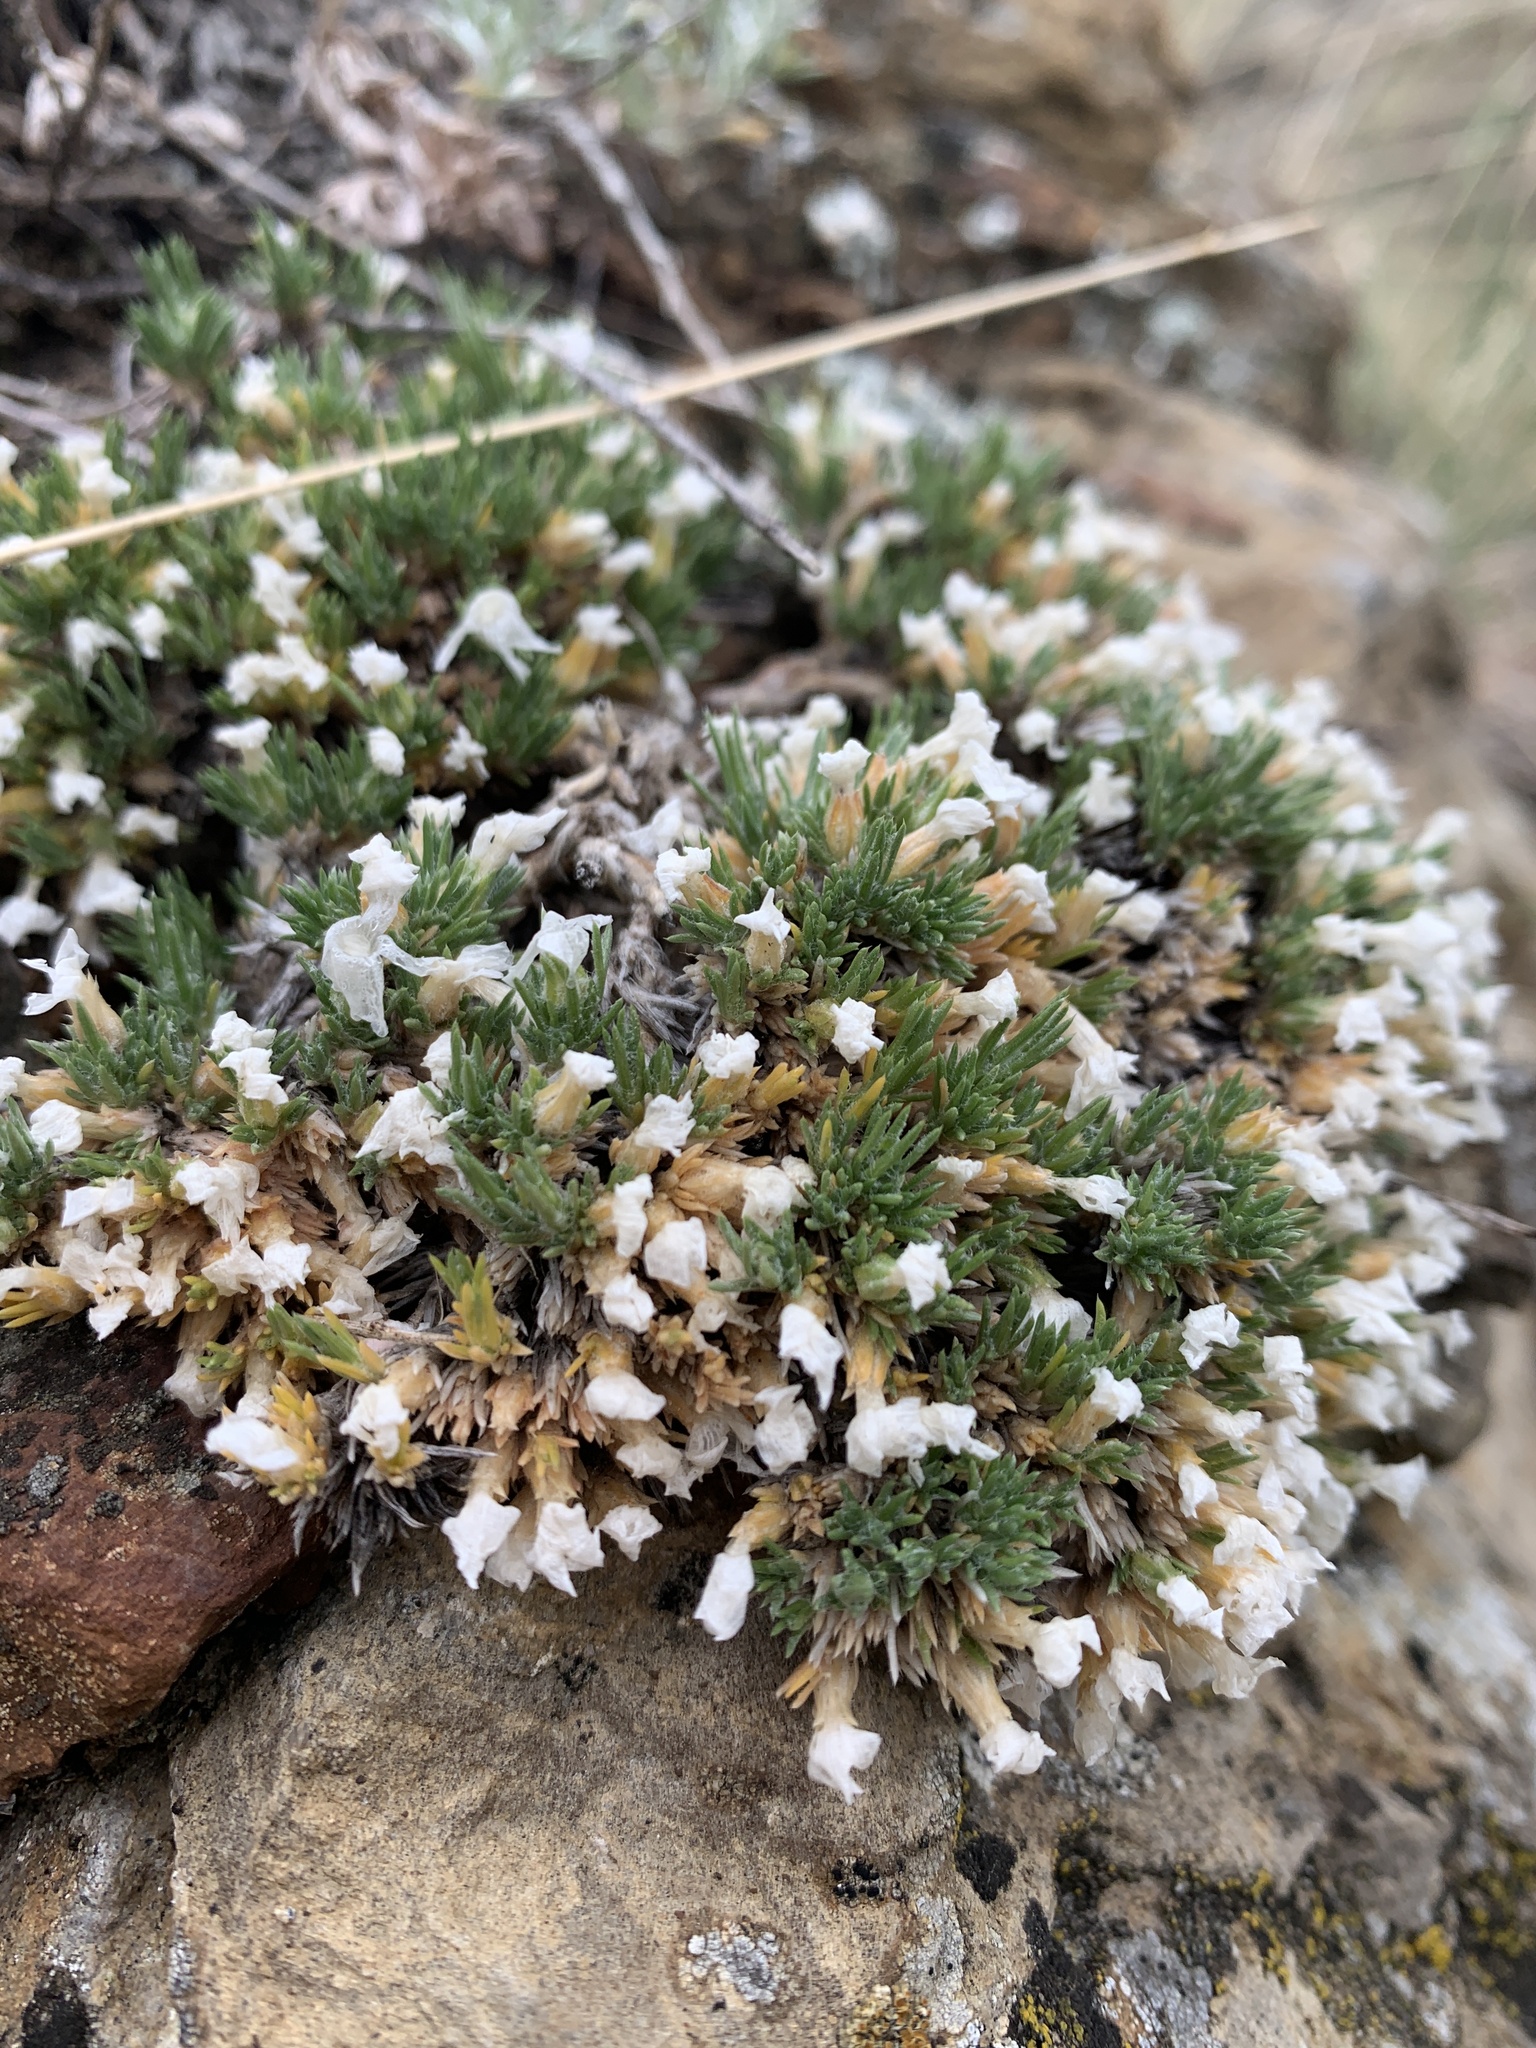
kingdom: Plantae
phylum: Tracheophyta
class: Magnoliopsida
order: Ericales
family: Polemoniaceae
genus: Phlox
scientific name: Phlox hoodii
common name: Moss phlox
